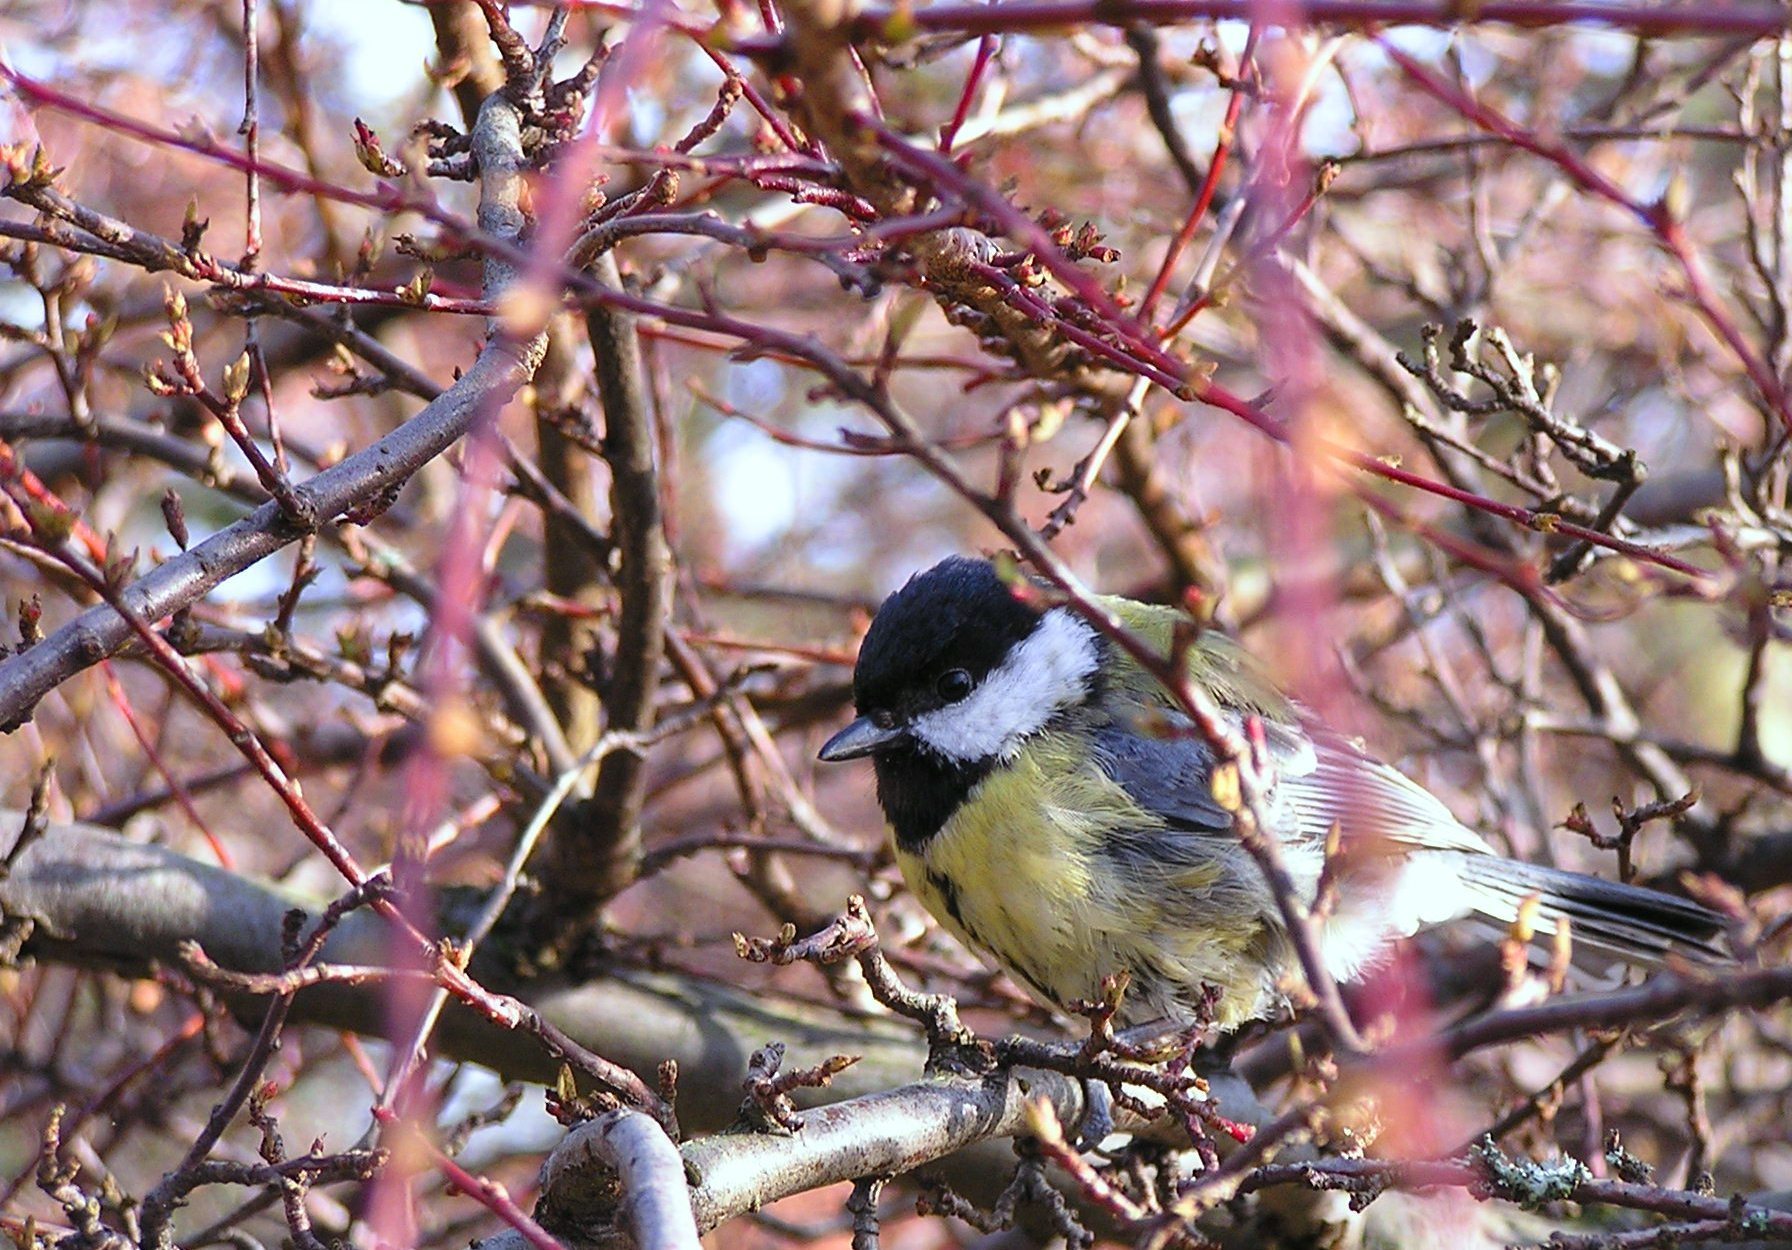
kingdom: Animalia
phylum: Chordata
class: Aves
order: Passeriformes
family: Paridae
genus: Parus
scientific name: Parus major
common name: Great tit
